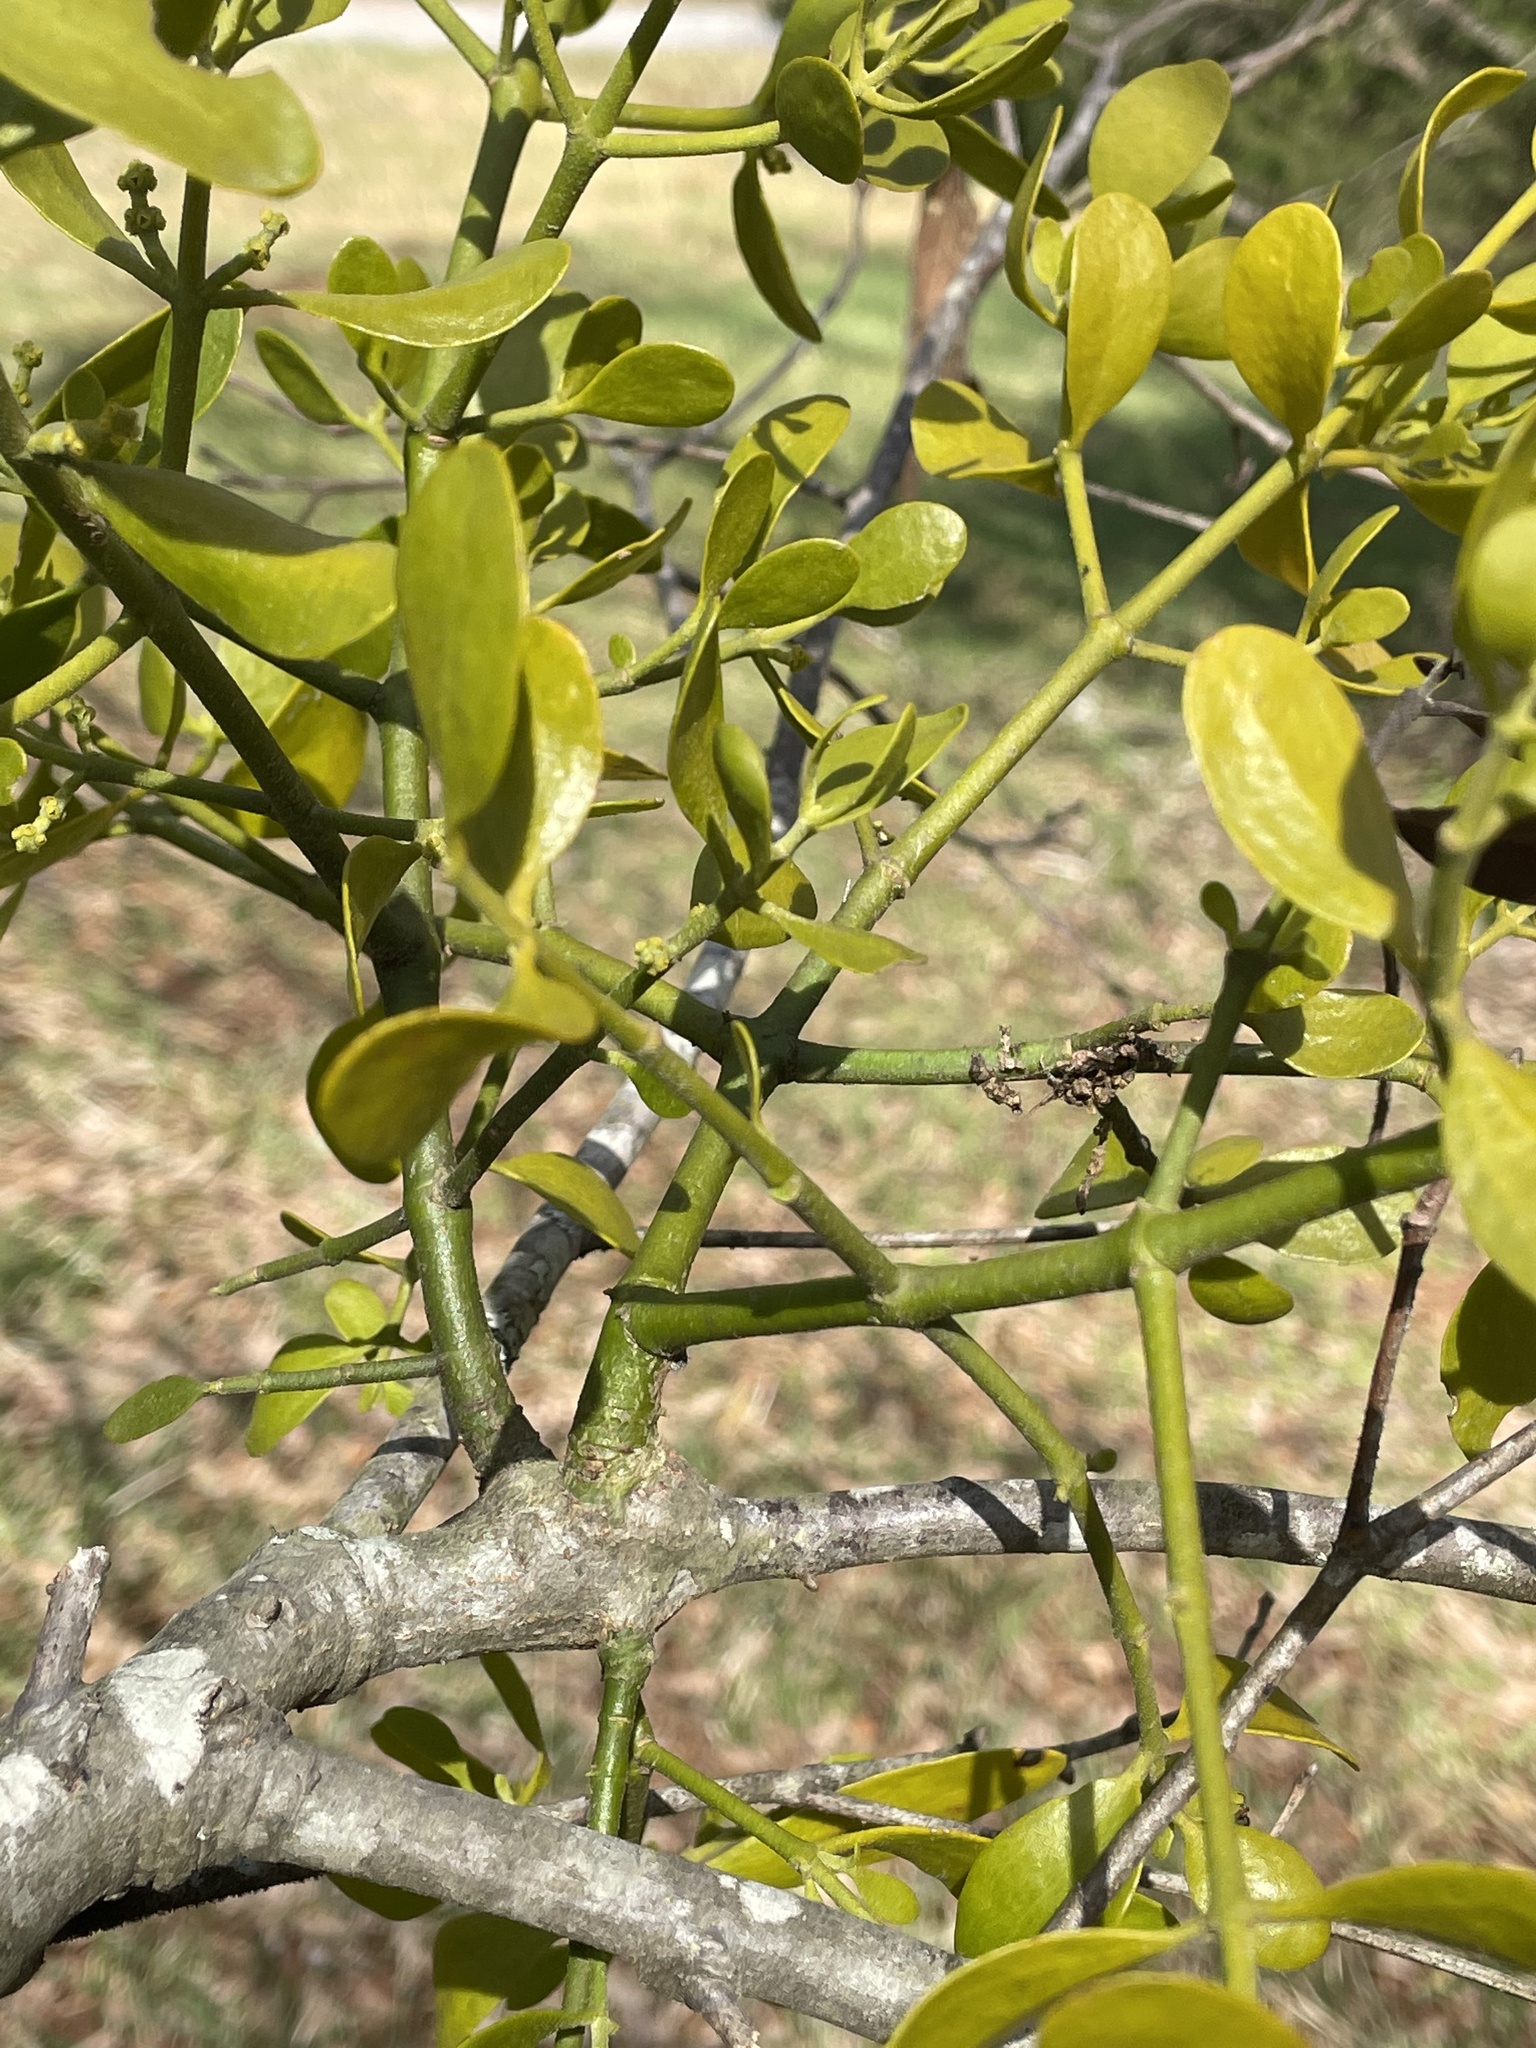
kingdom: Plantae
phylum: Tracheophyta
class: Magnoliopsida
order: Santalales
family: Viscaceae
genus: Phoradendron
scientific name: Phoradendron leucarpum
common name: Pacific mistletoe
